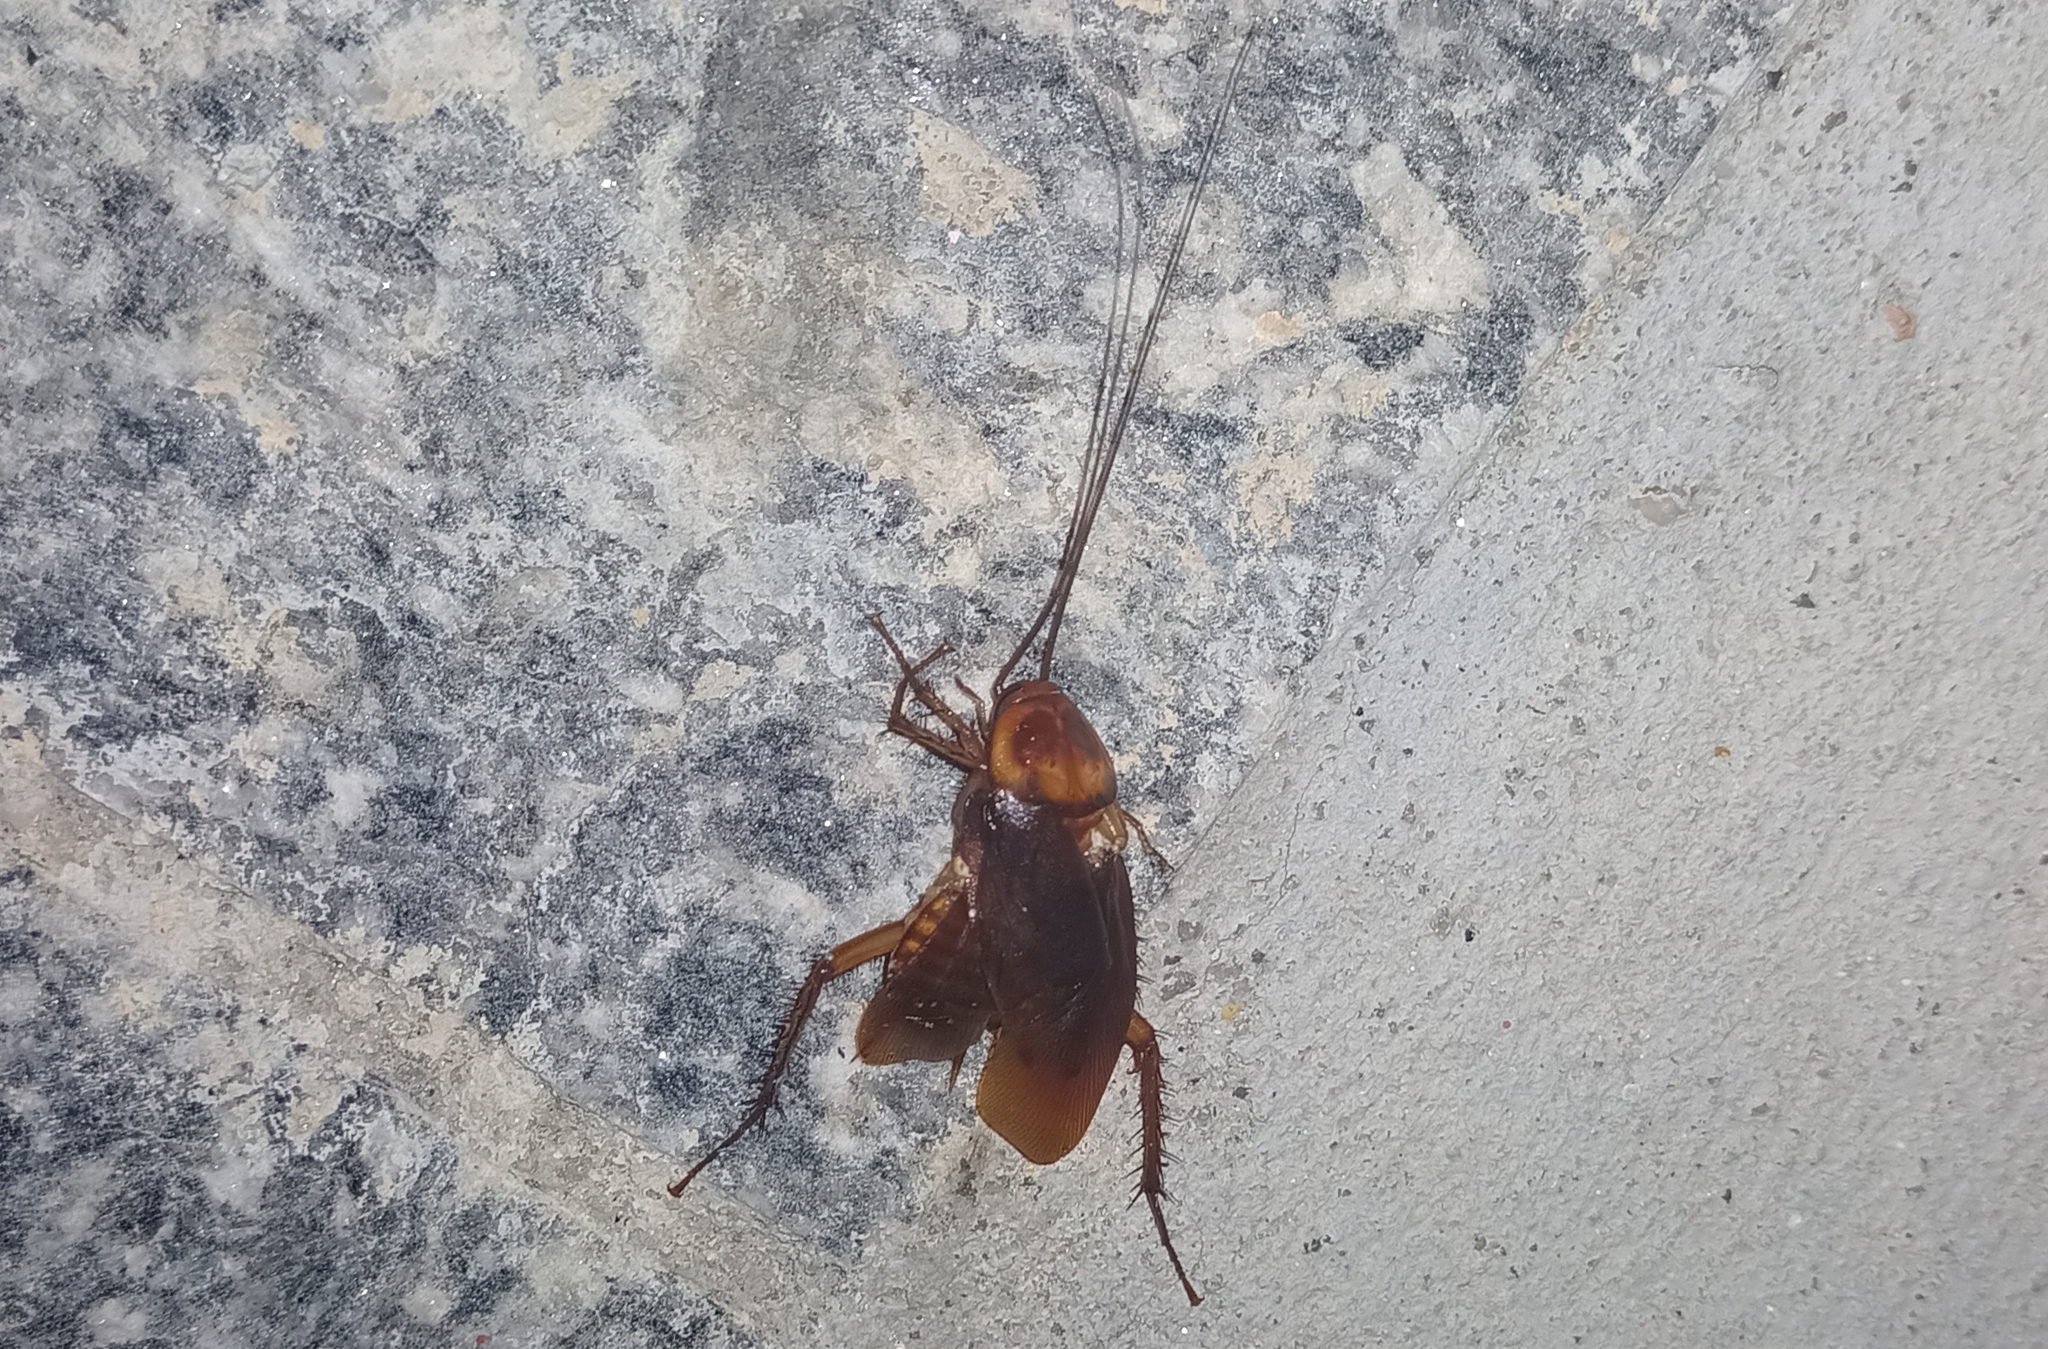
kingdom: Animalia
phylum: Arthropoda
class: Insecta
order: Blattodea
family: Blattidae
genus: Periplaneta
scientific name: Periplaneta americana
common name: American cockroach
